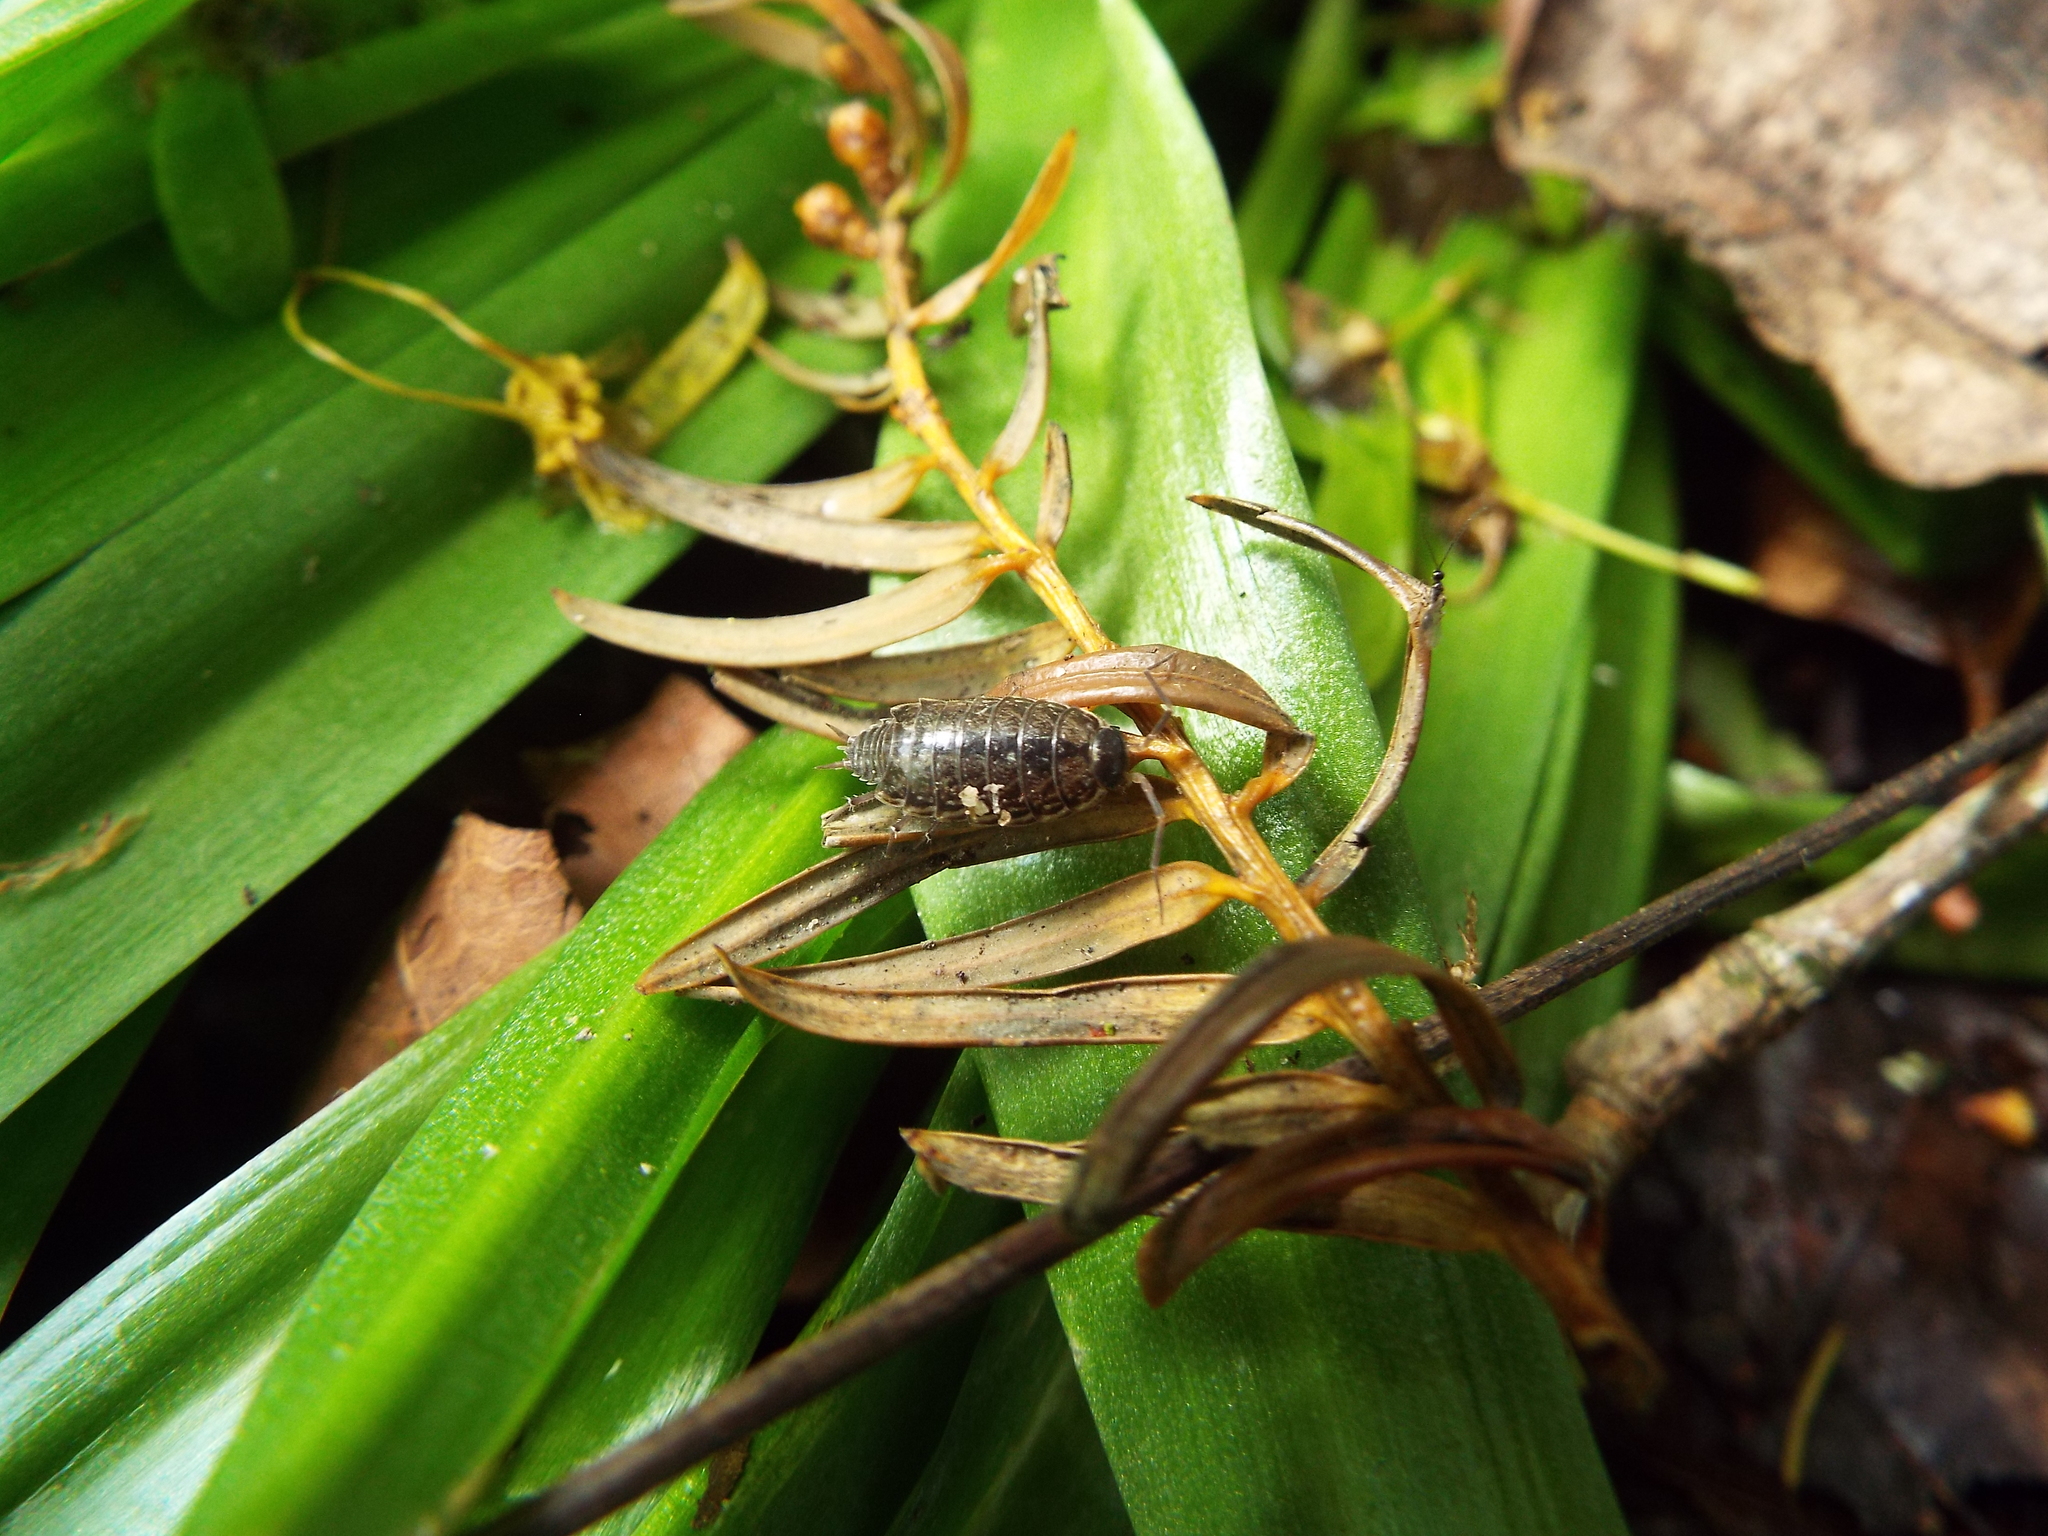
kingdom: Animalia
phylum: Arthropoda
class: Malacostraca
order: Isopoda
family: Philosciidae
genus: Philoscia
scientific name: Philoscia muscorum
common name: Common striped woodlouse
